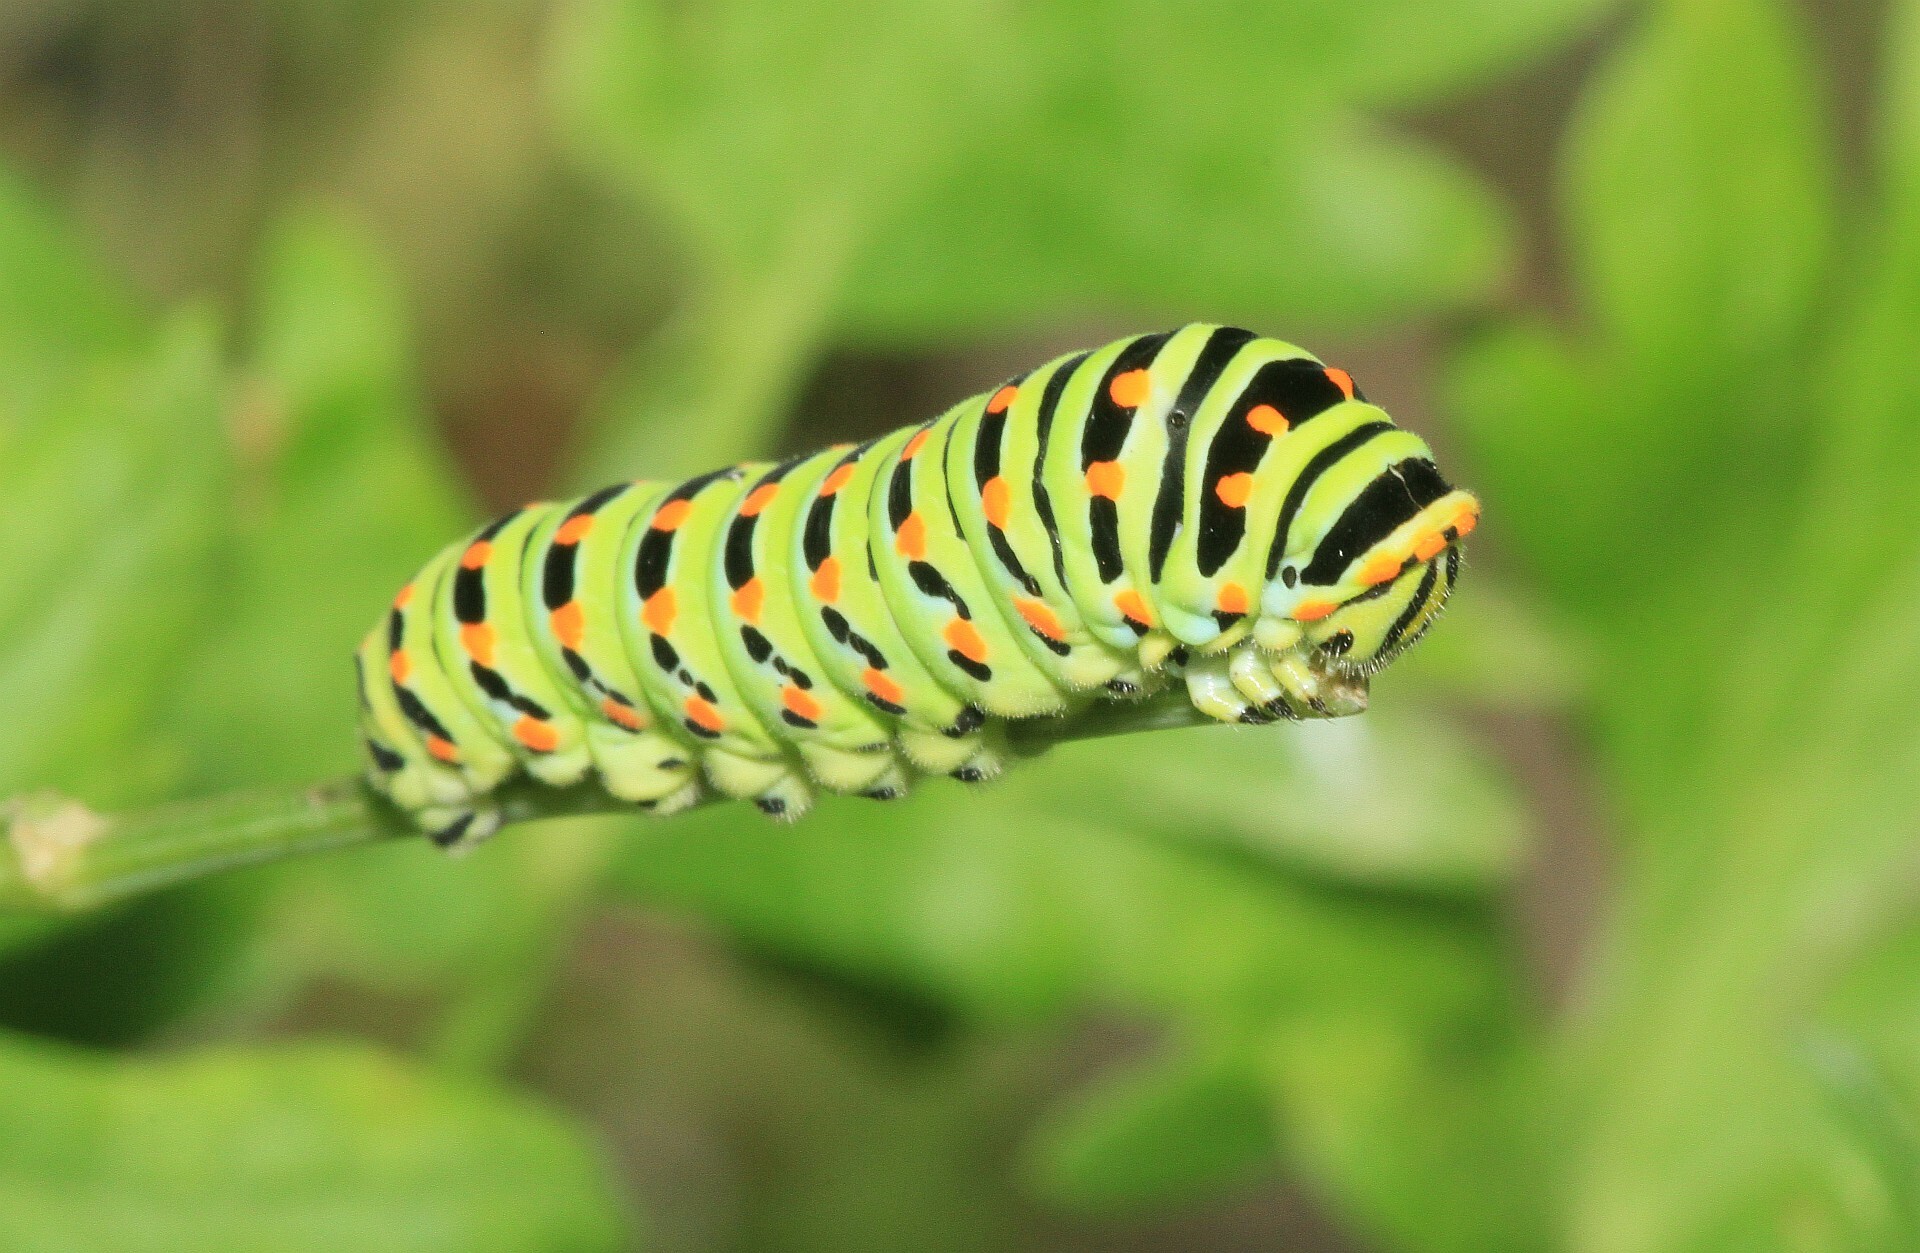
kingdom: Animalia
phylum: Arthropoda
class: Insecta
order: Lepidoptera
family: Papilionidae
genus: Papilio
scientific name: Papilio machaon
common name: Swallowtail
